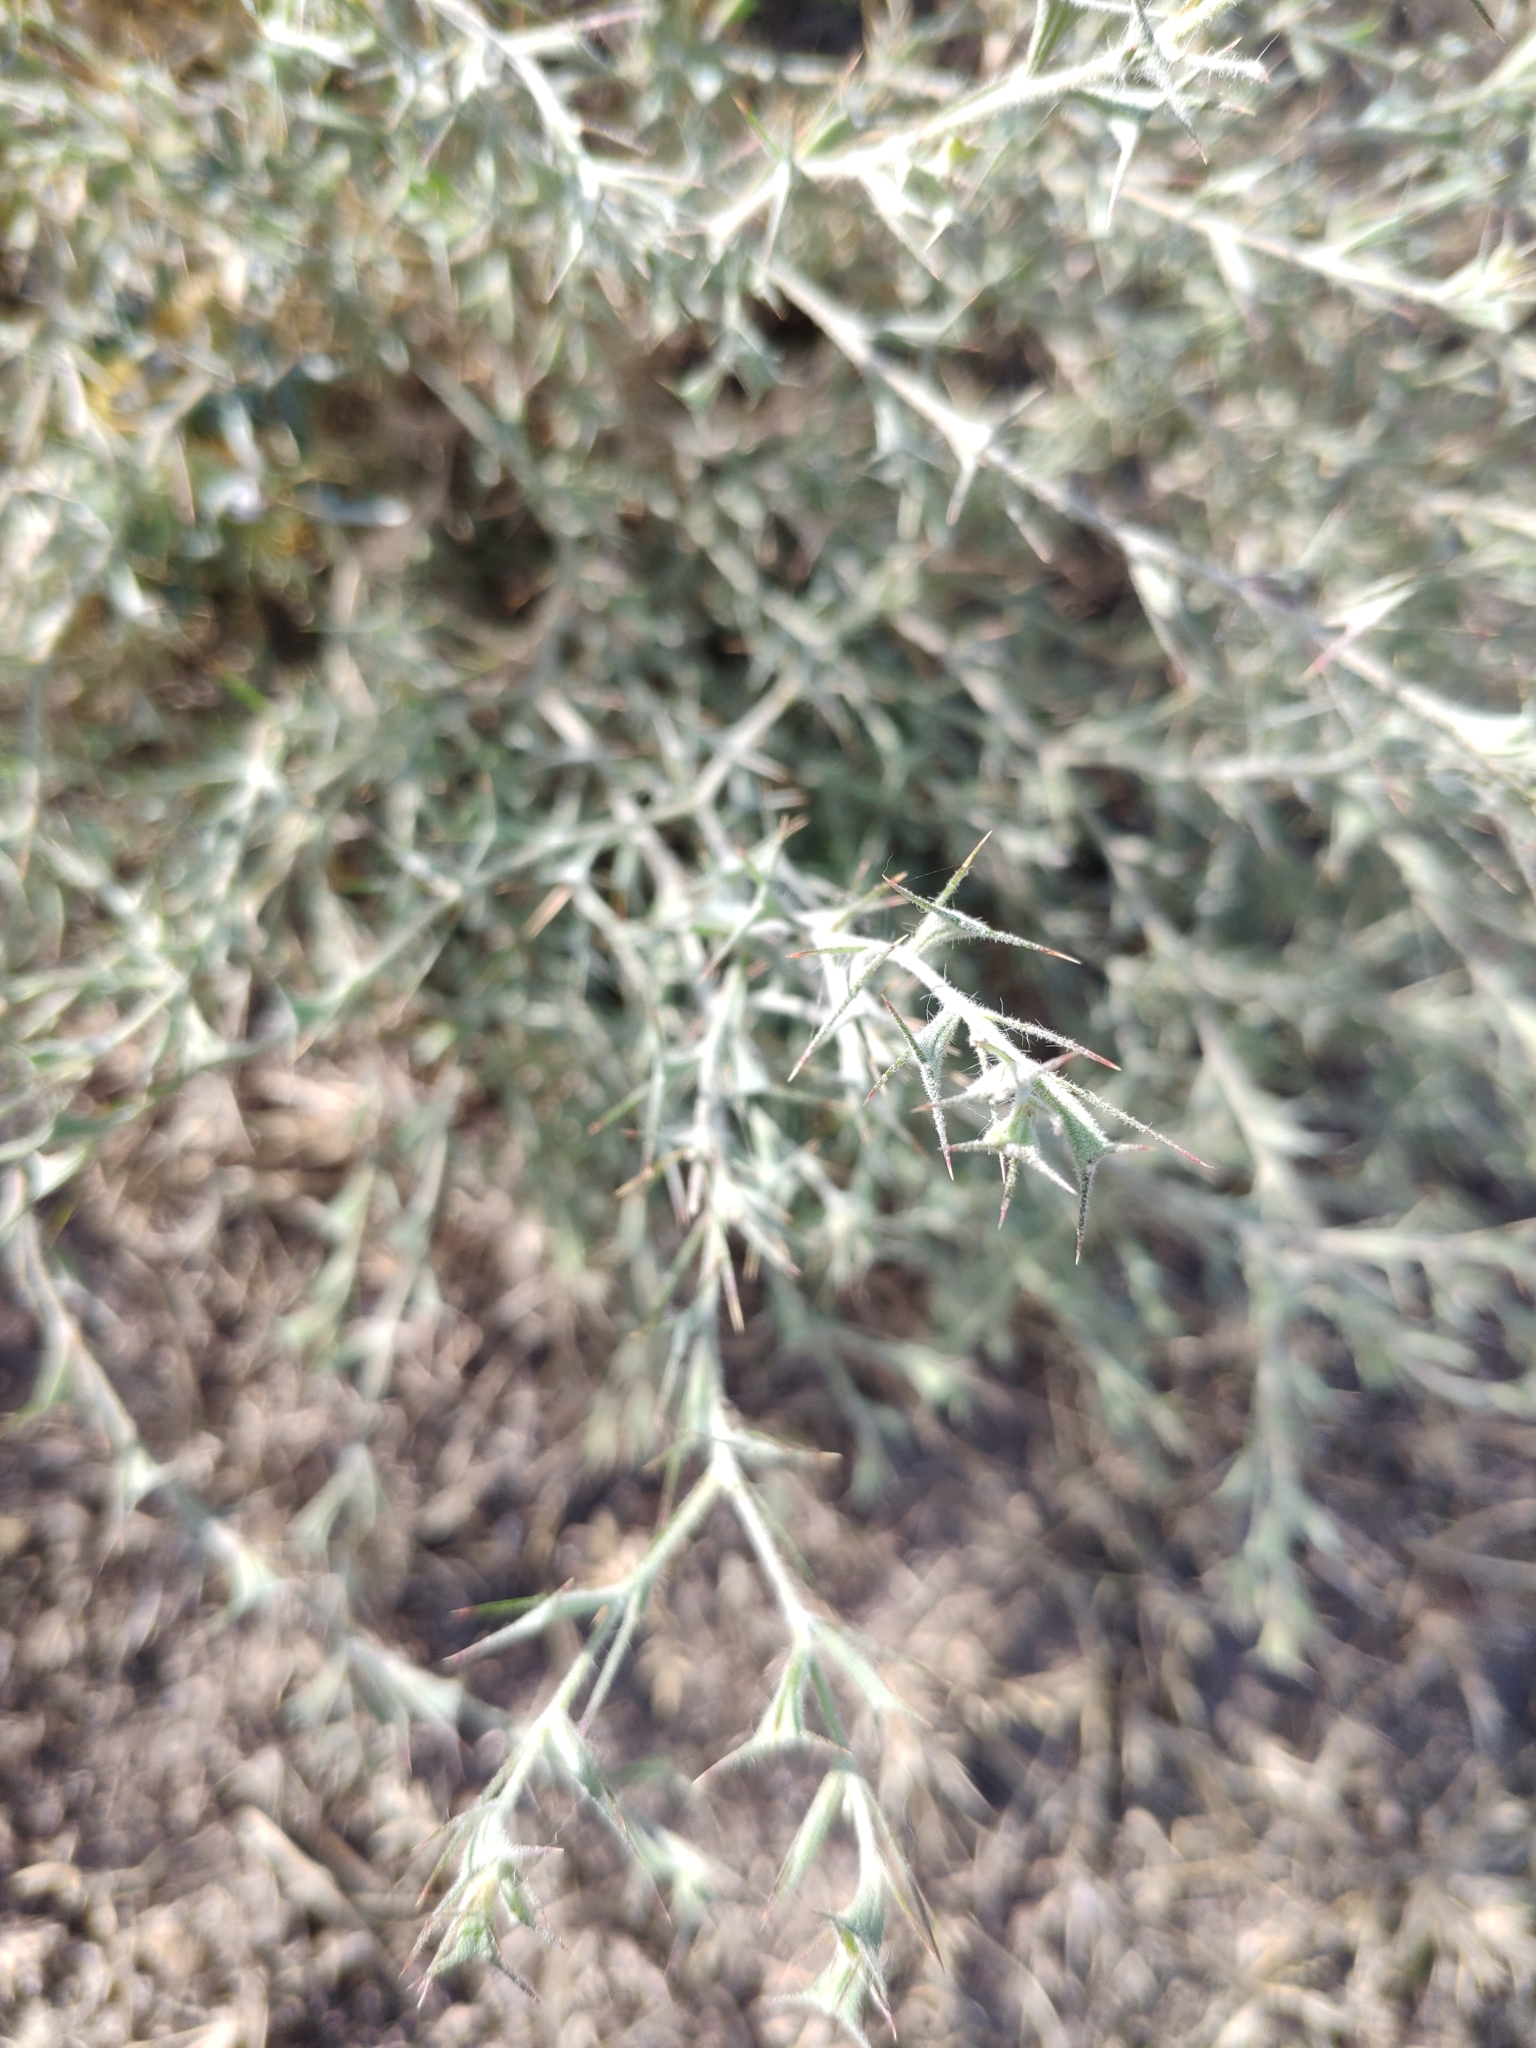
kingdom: Plantae
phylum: Tracheophyta
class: Magnoliopsida
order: Caryophyllales
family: Amaranthaceae
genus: Ceratocarpus
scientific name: Ceratocarpus arenarius
